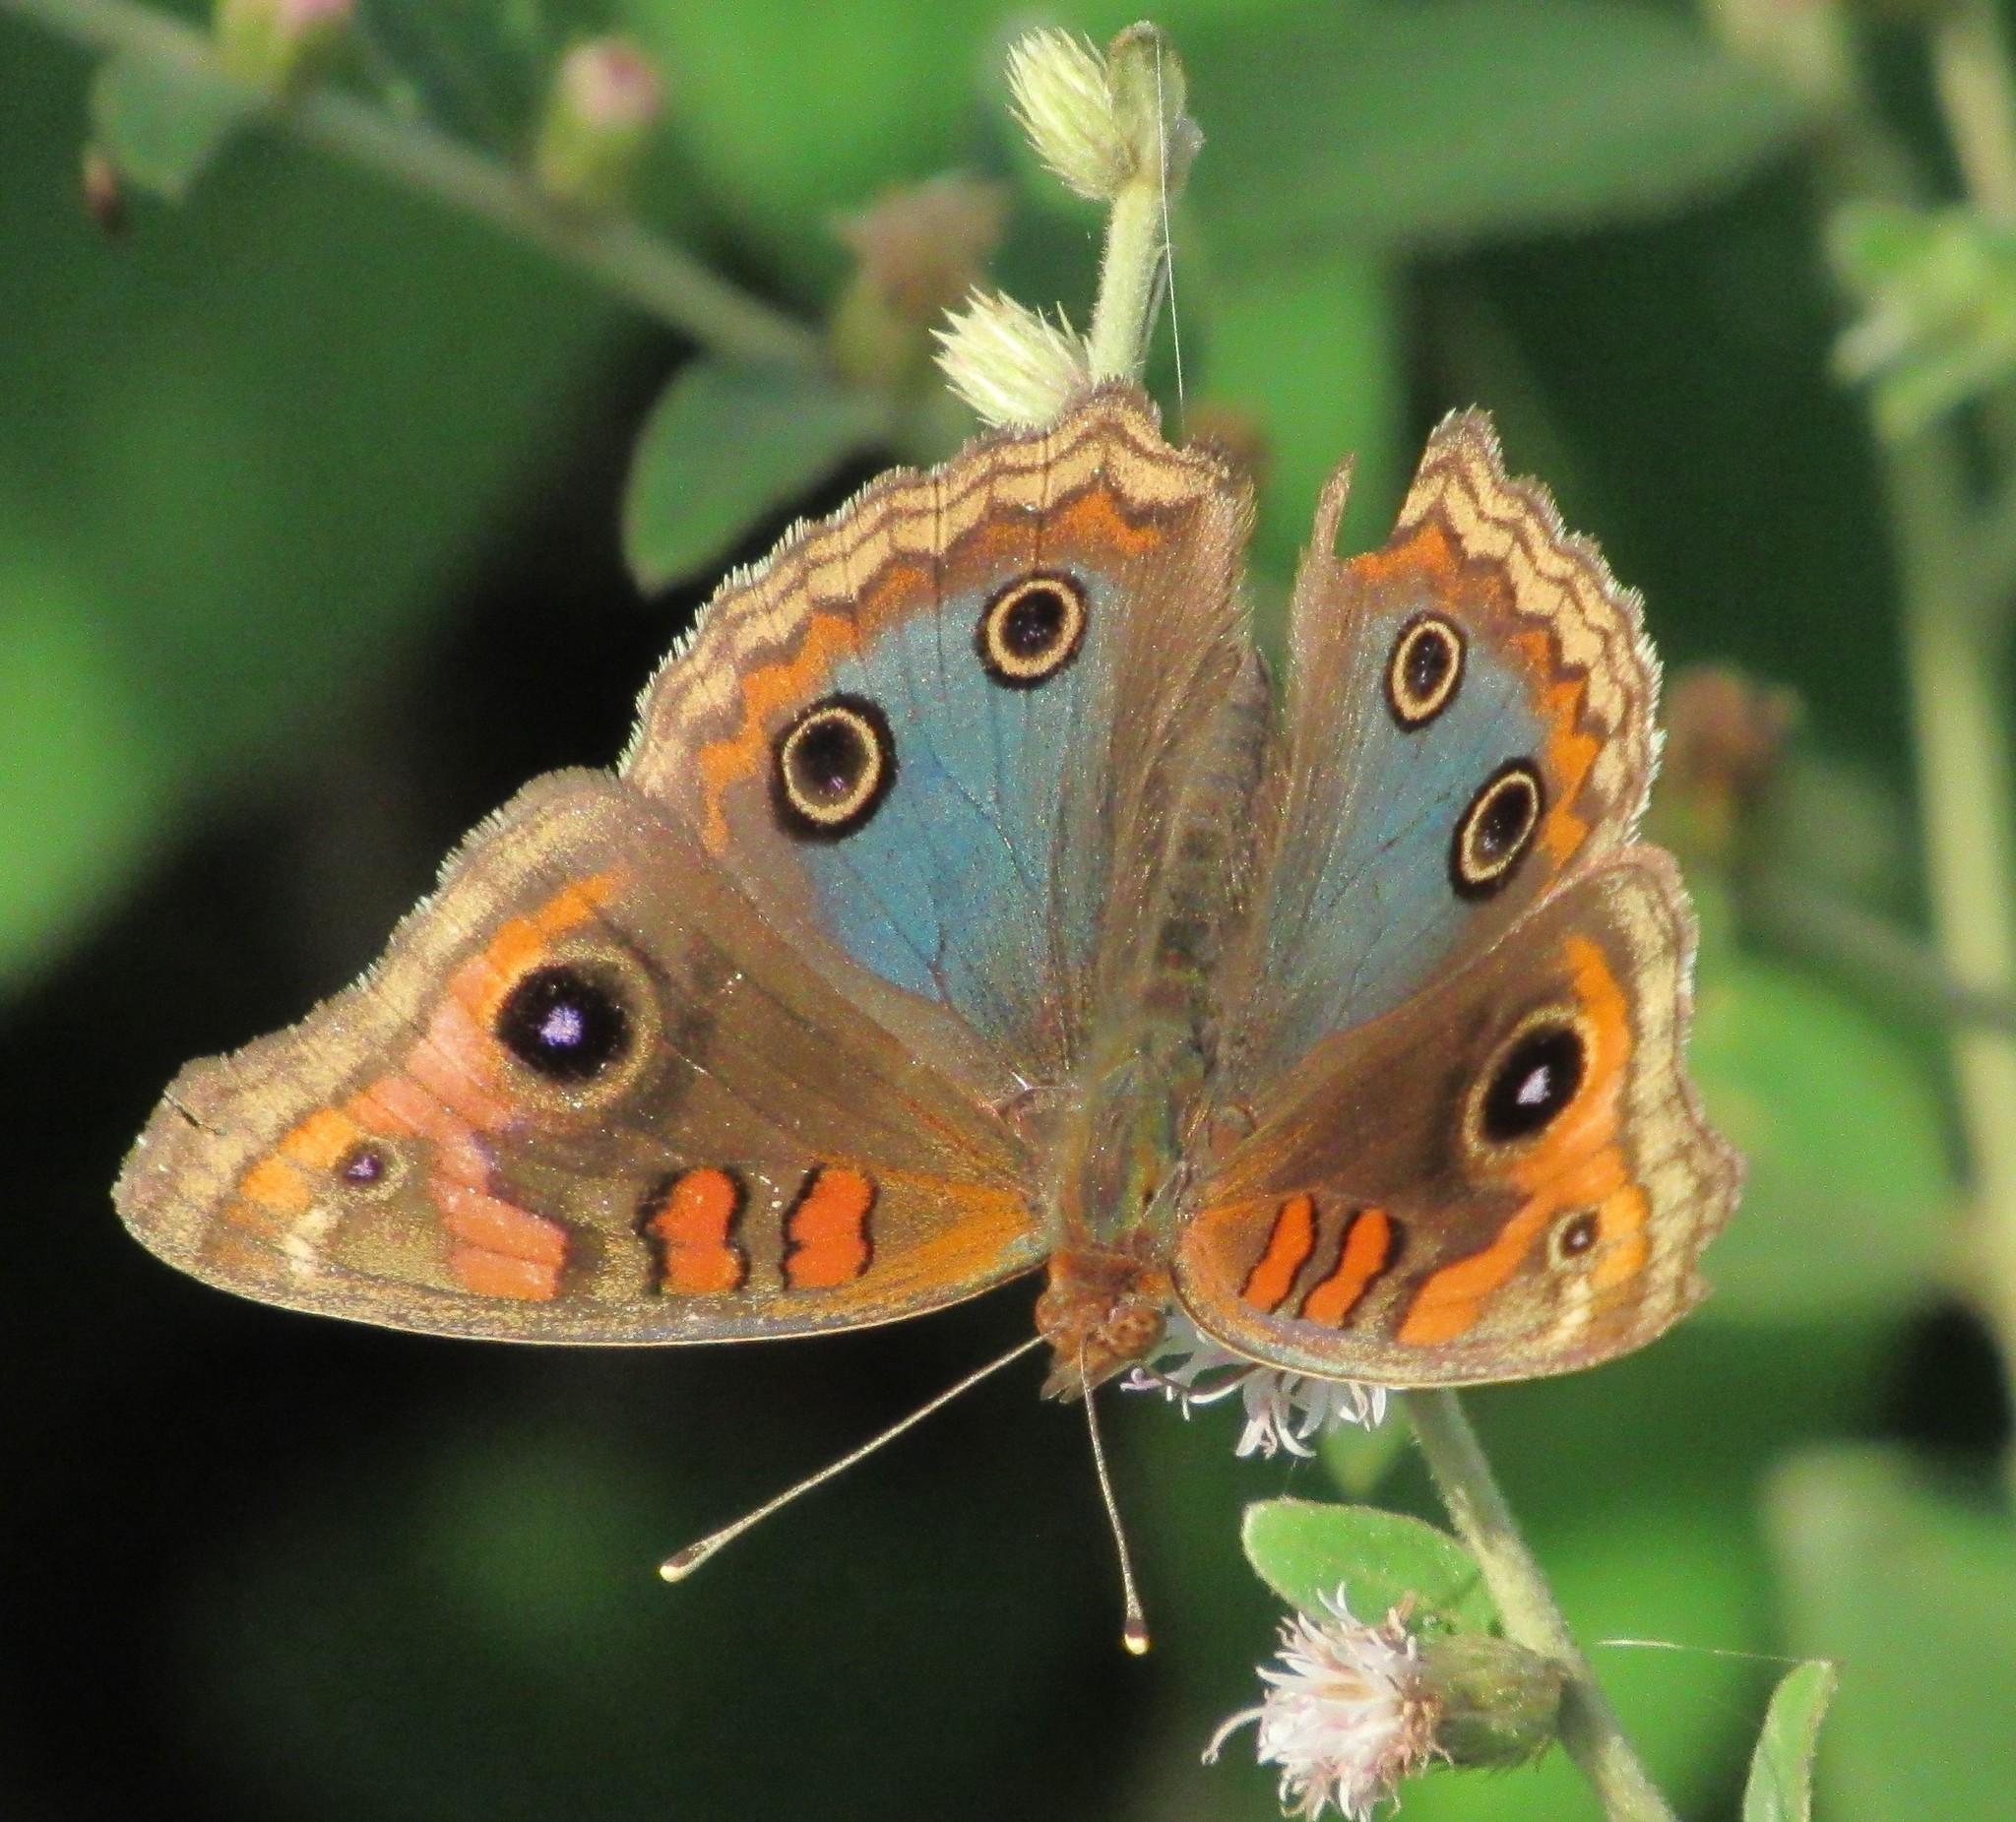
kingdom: Animalia
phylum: Arthropoda
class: Insecta
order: Lepidoptera
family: Nymphalidae
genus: Junonia
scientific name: Junonia evarete
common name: Black mangrove buckeye
